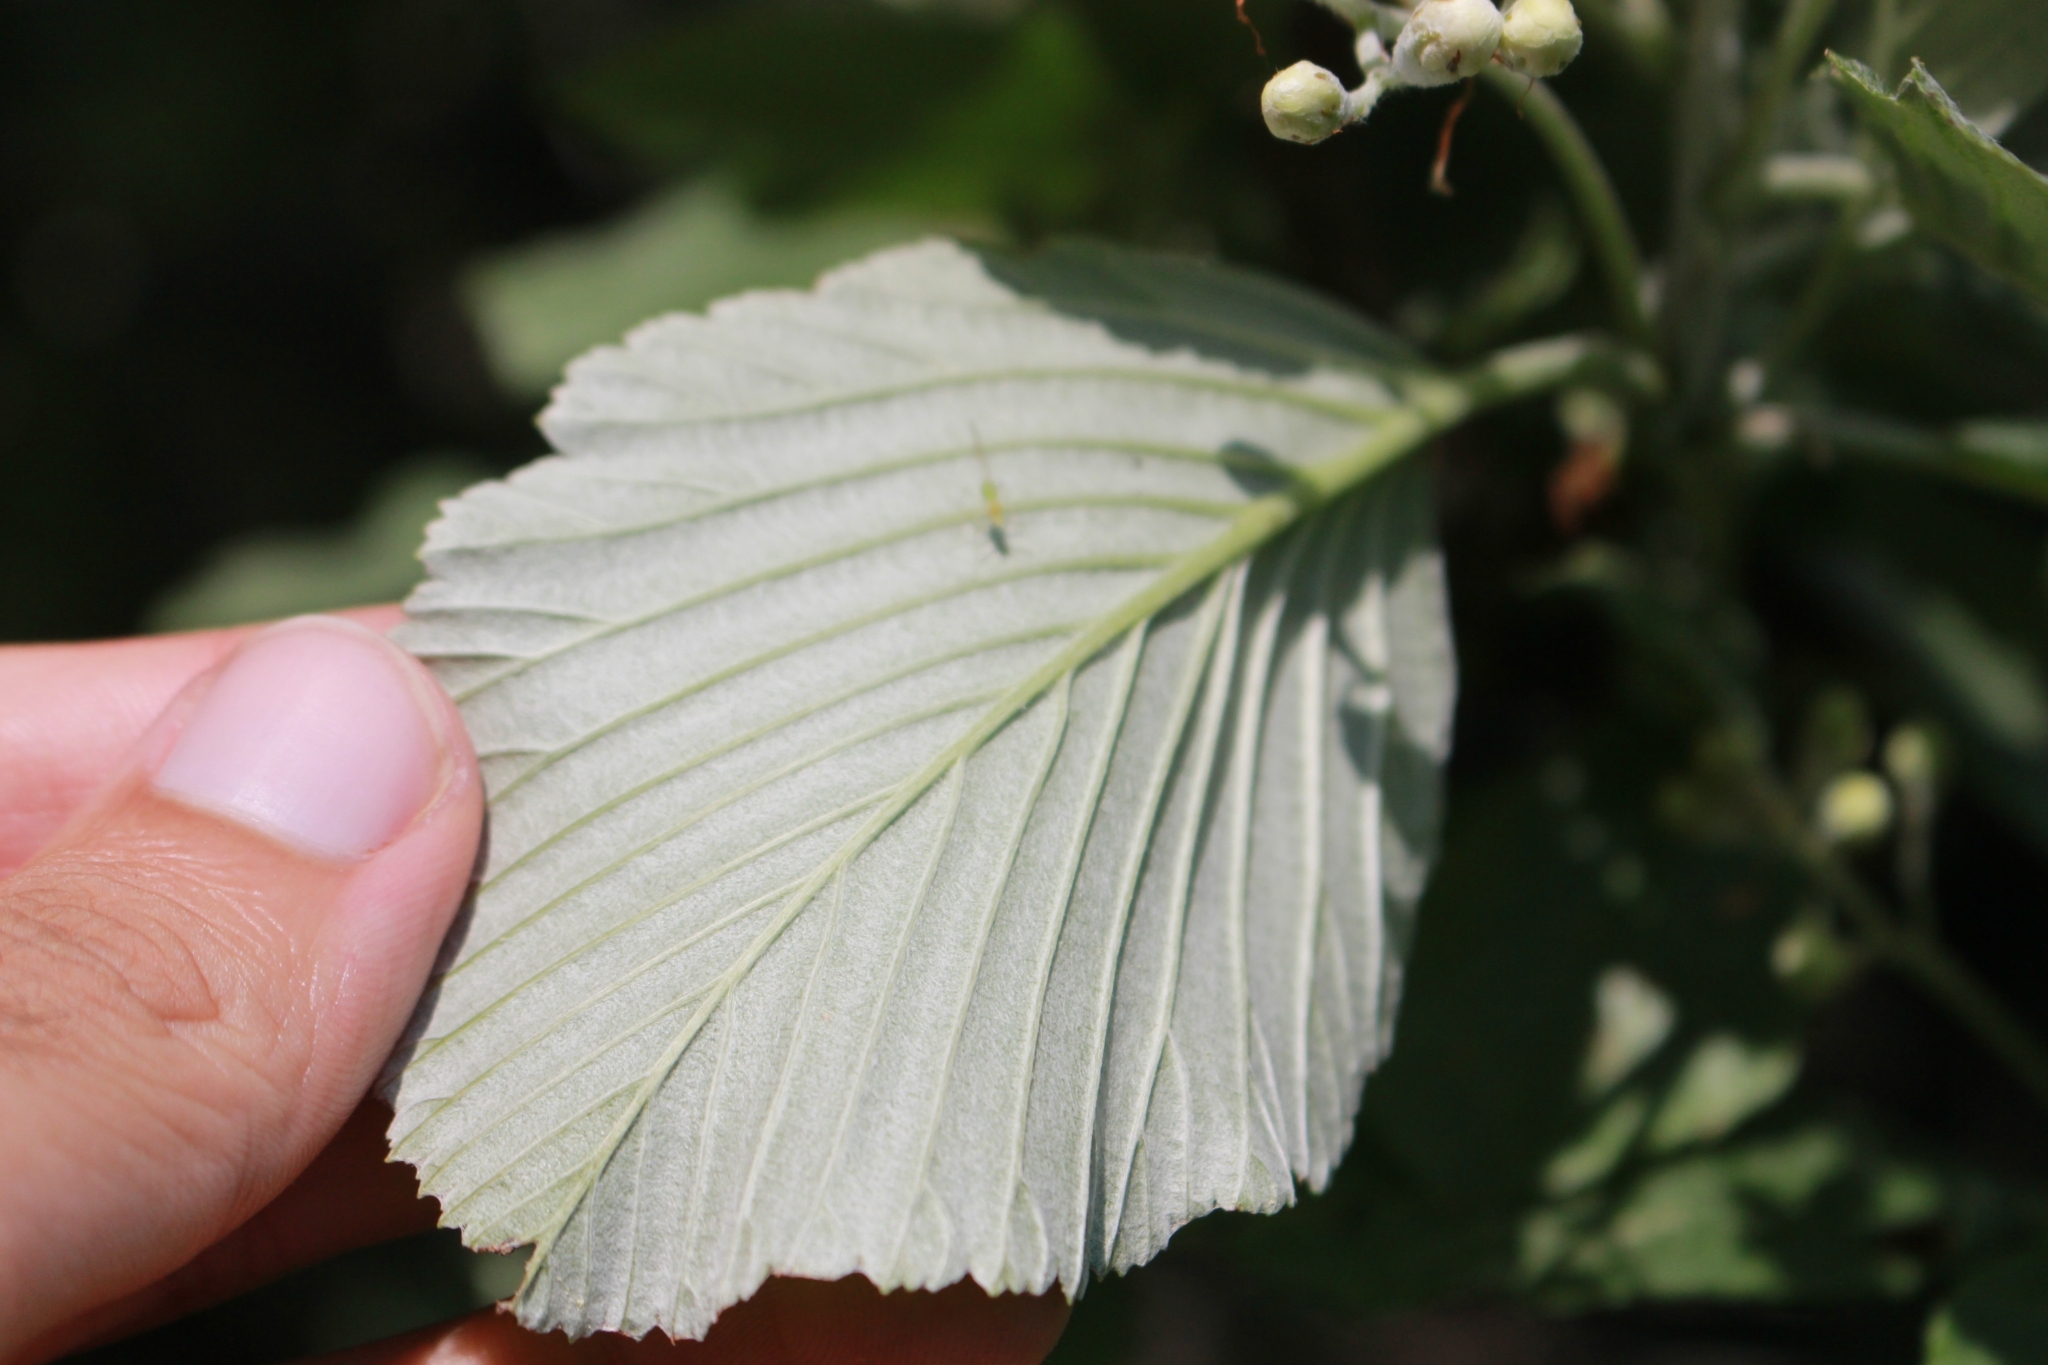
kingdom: Plantae
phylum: Tracheophyta
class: Magnoliopsida
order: Rosales
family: Rosaceae
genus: Aria
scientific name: Aria edulis
